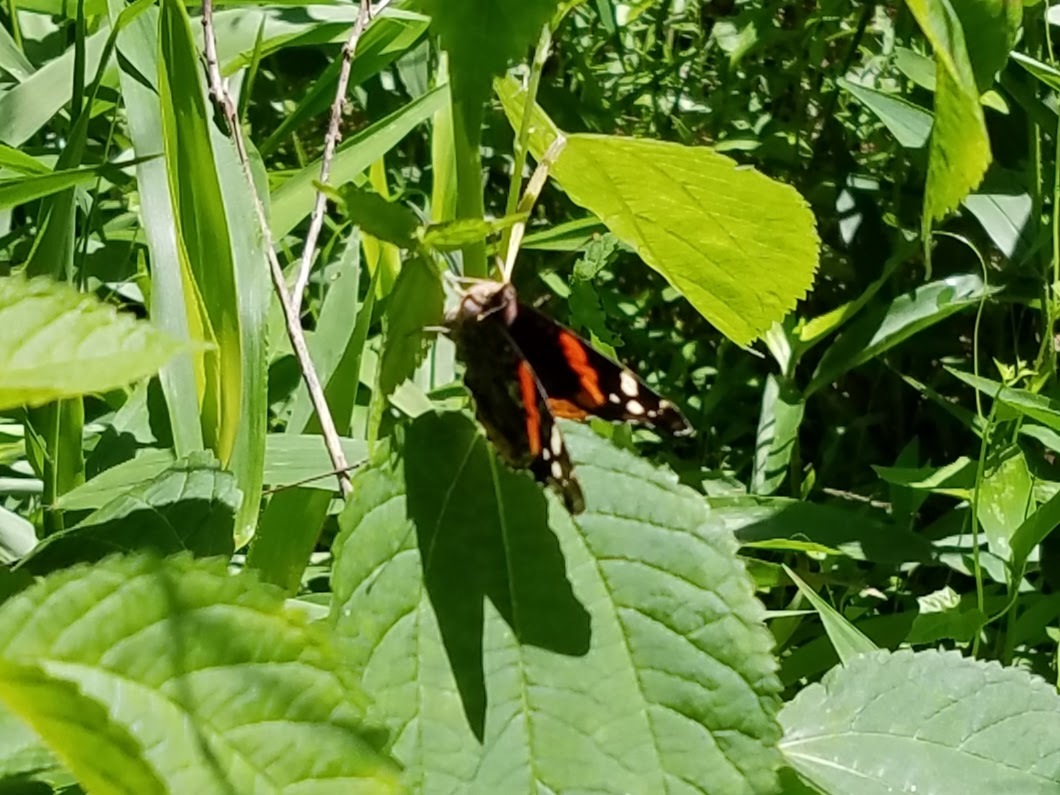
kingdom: Animalia
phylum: Arthropoda
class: Insecta
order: Lepidoptera
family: Nymphalidae
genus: Vanessa
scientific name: Vanessa atalanta
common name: Red admiral
